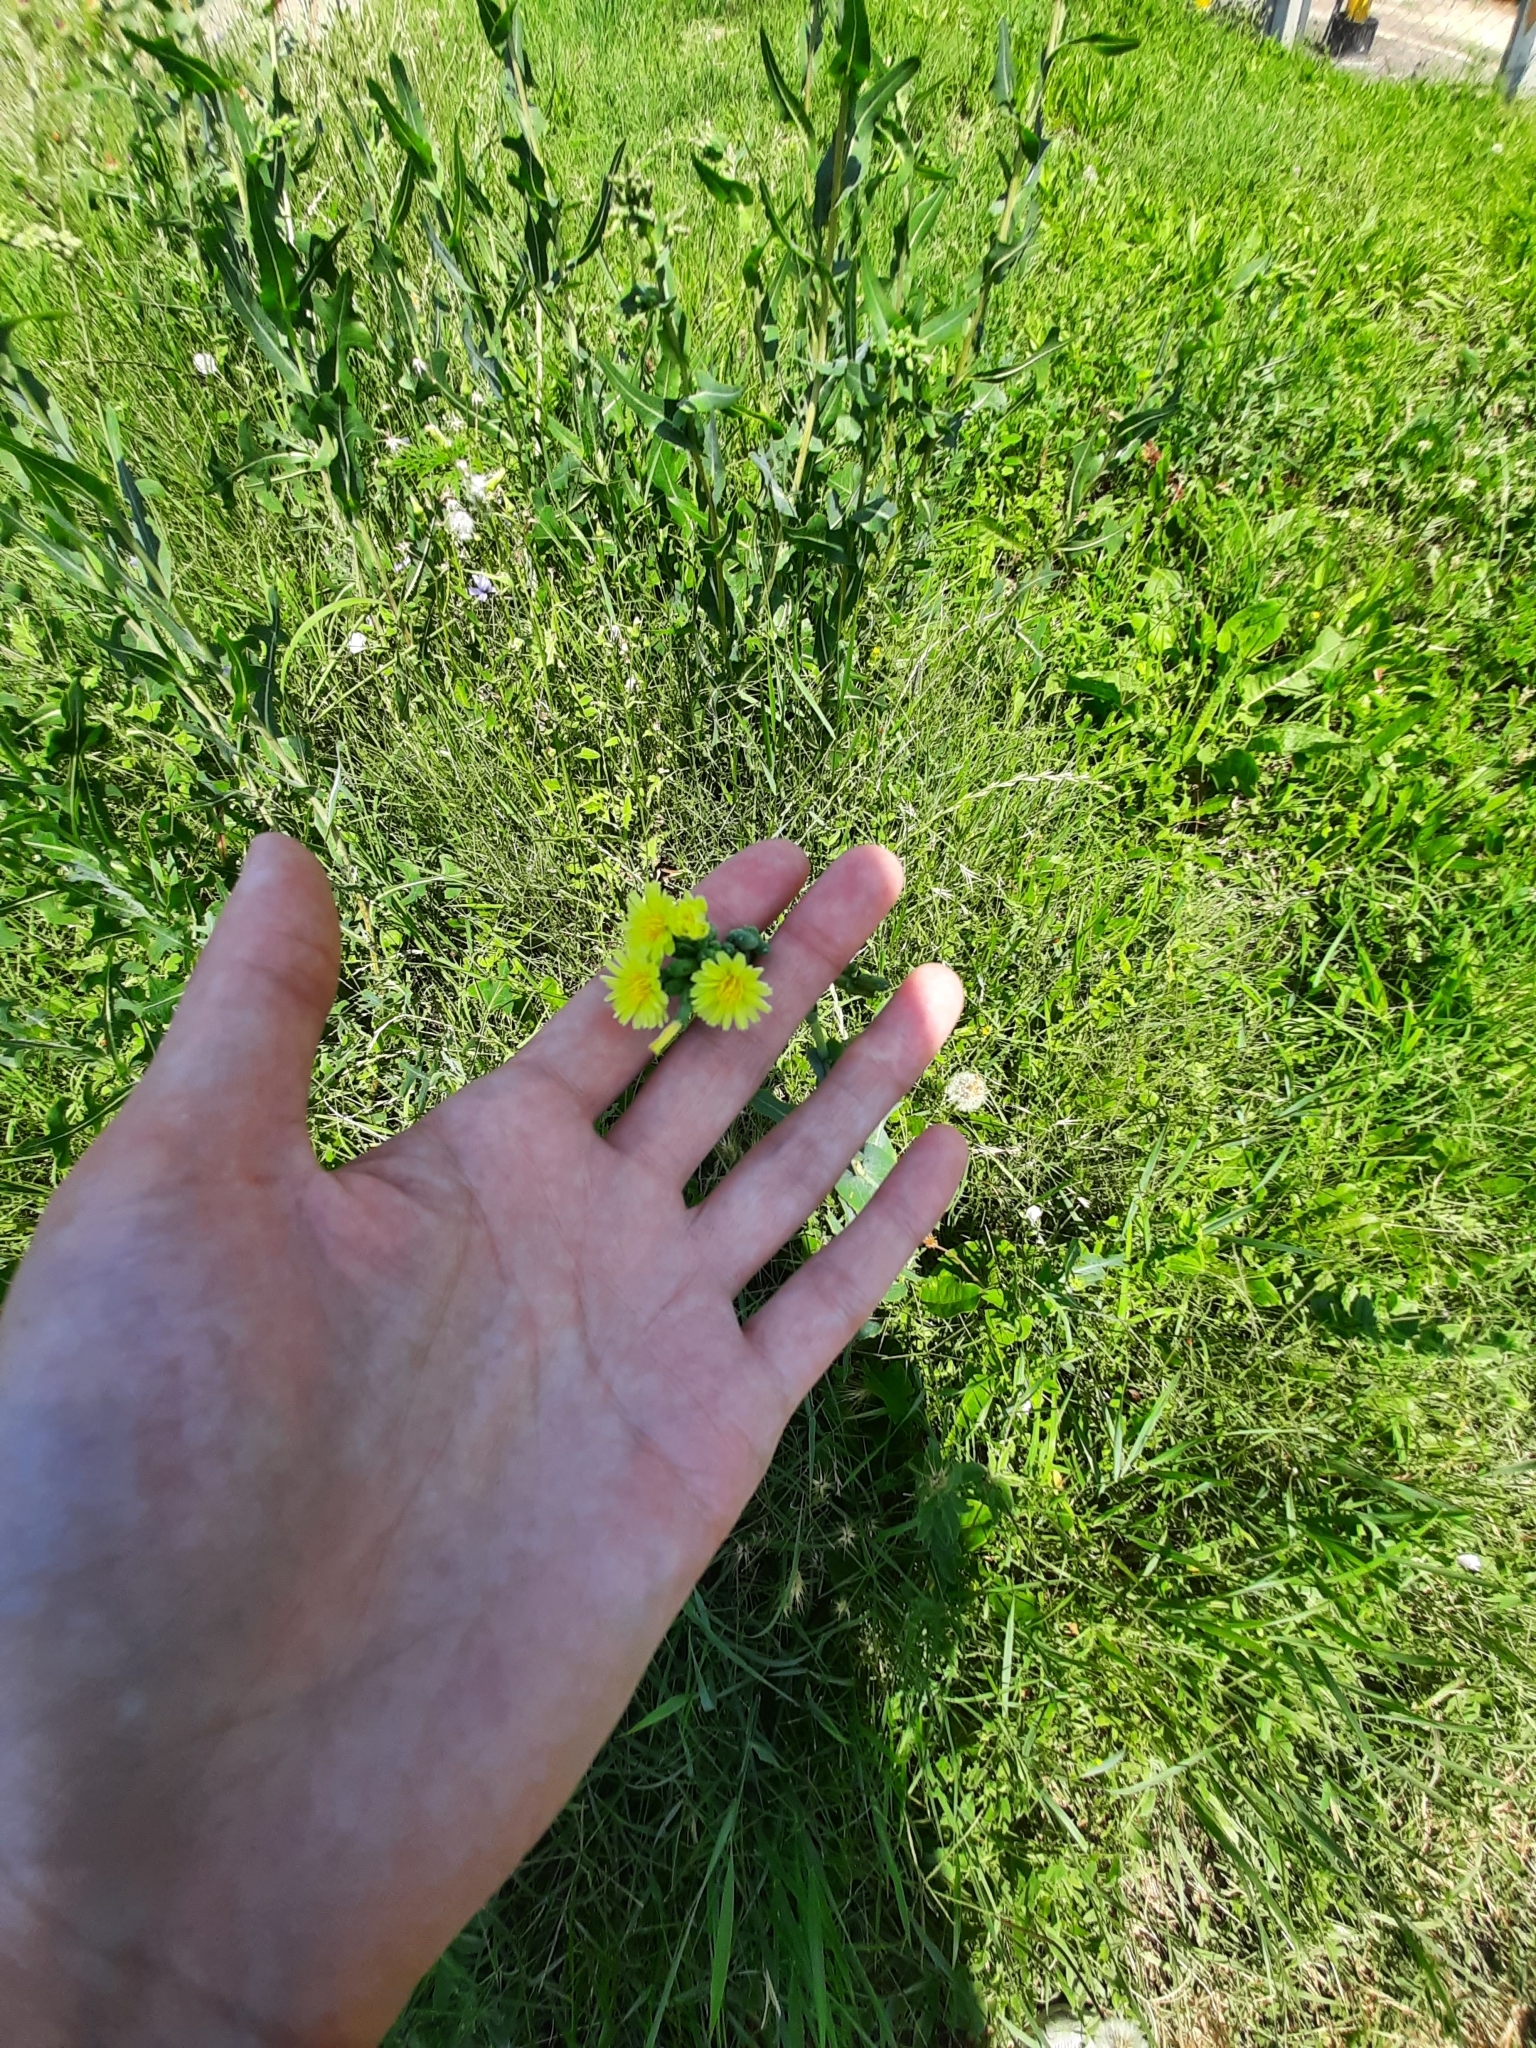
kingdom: Plantae
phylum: Tracheophyta
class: Magnoliopsida
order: Asterales
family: Asteraceae
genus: Lactuca
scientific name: Lactuca serriola
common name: Prickly lettuce
